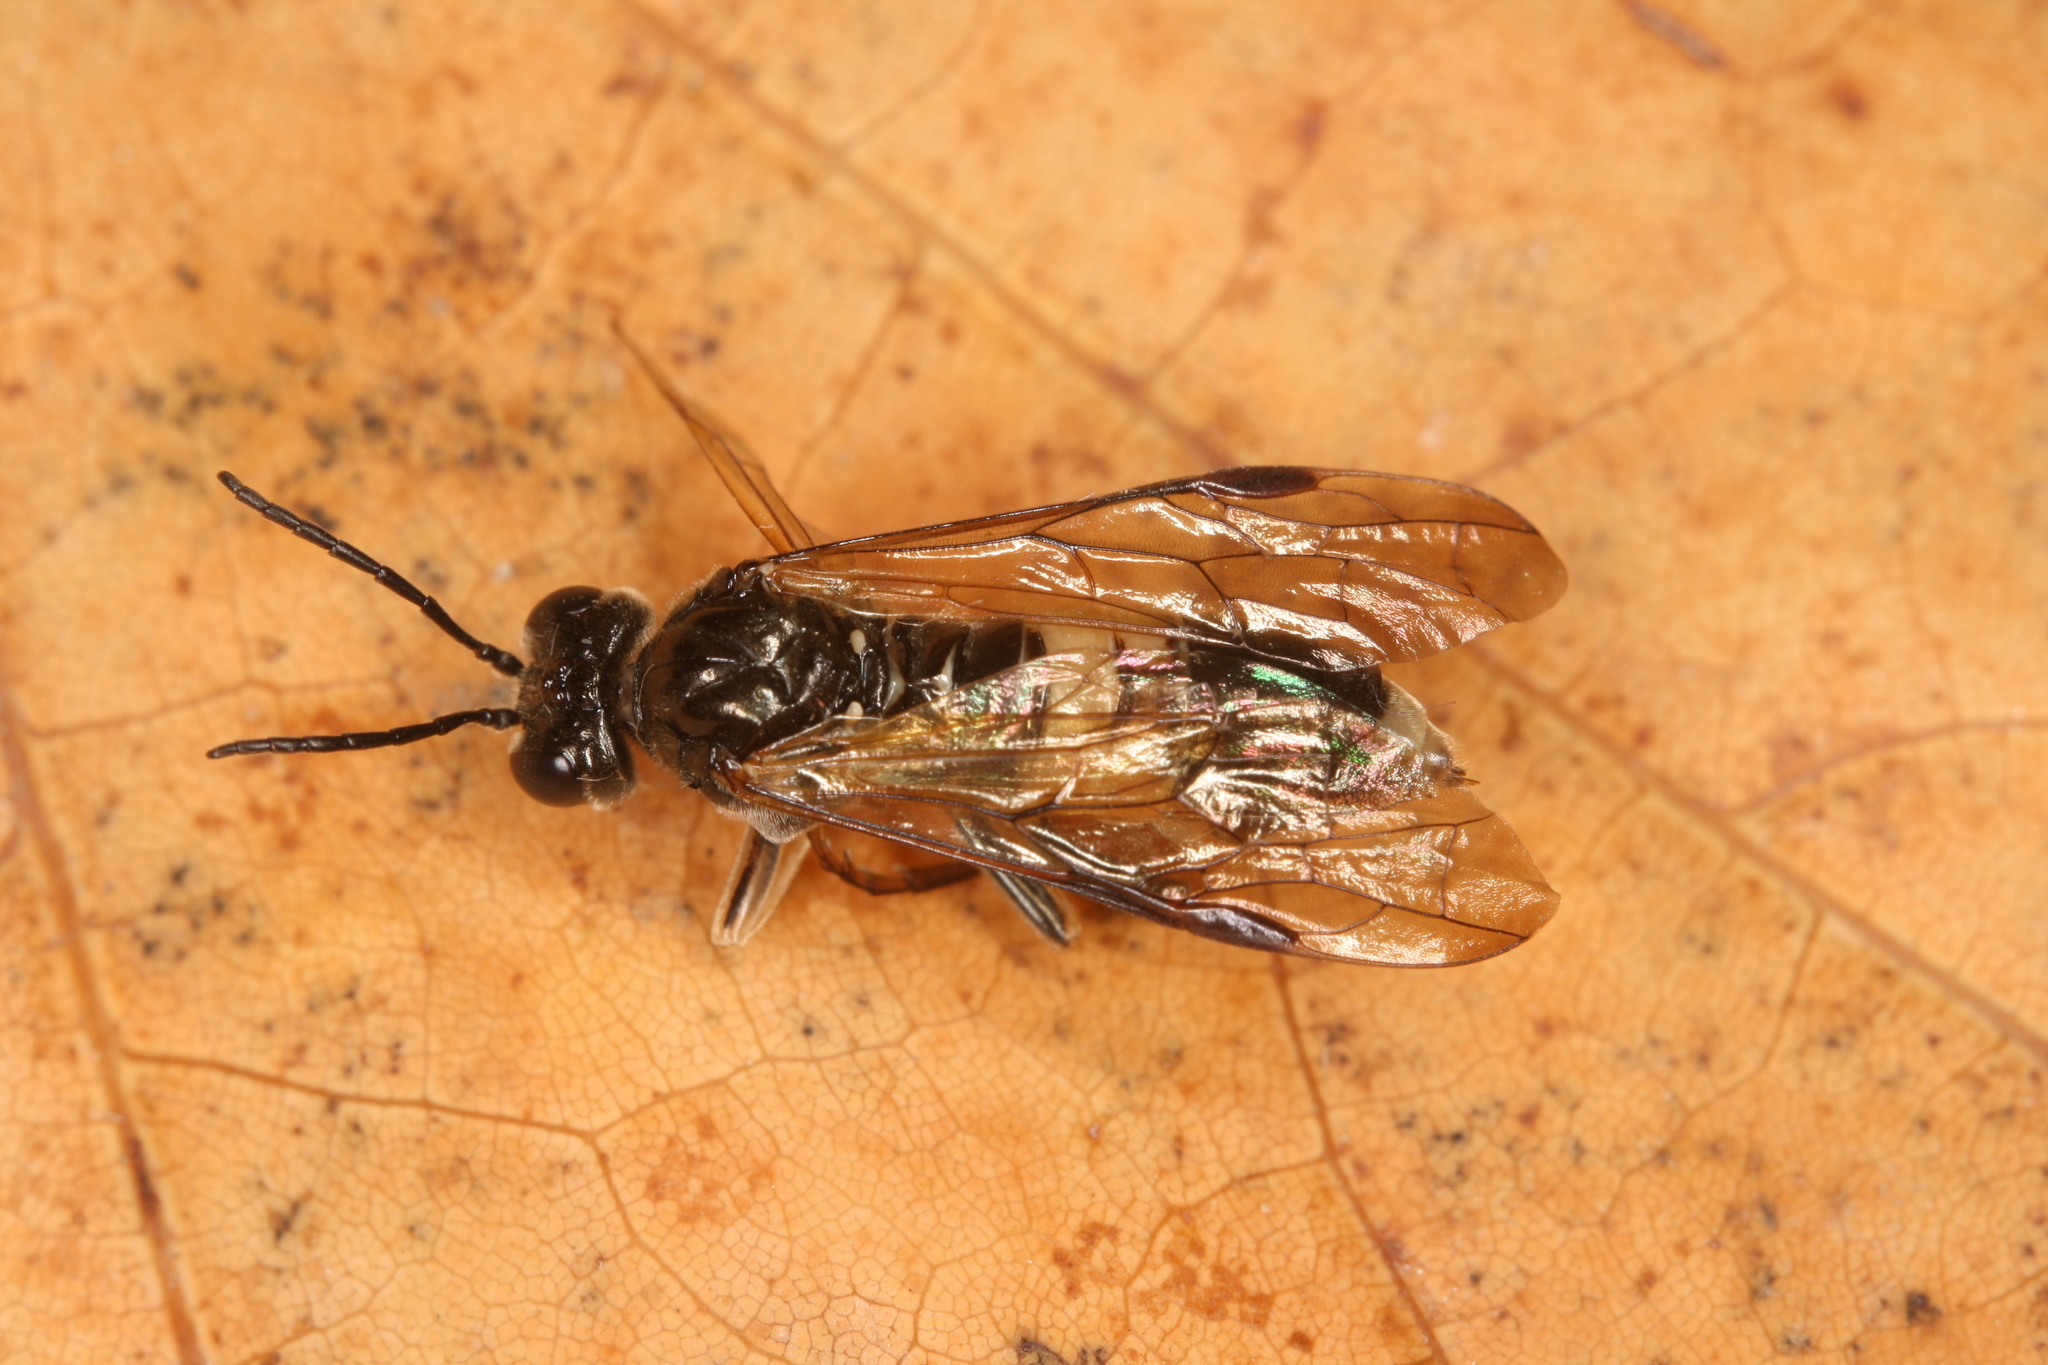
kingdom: Animalia
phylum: Arthropoda
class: Insecta
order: Hymenoptera
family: Tenthredinidae
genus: Tenthredo
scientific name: Tenthredo temula
